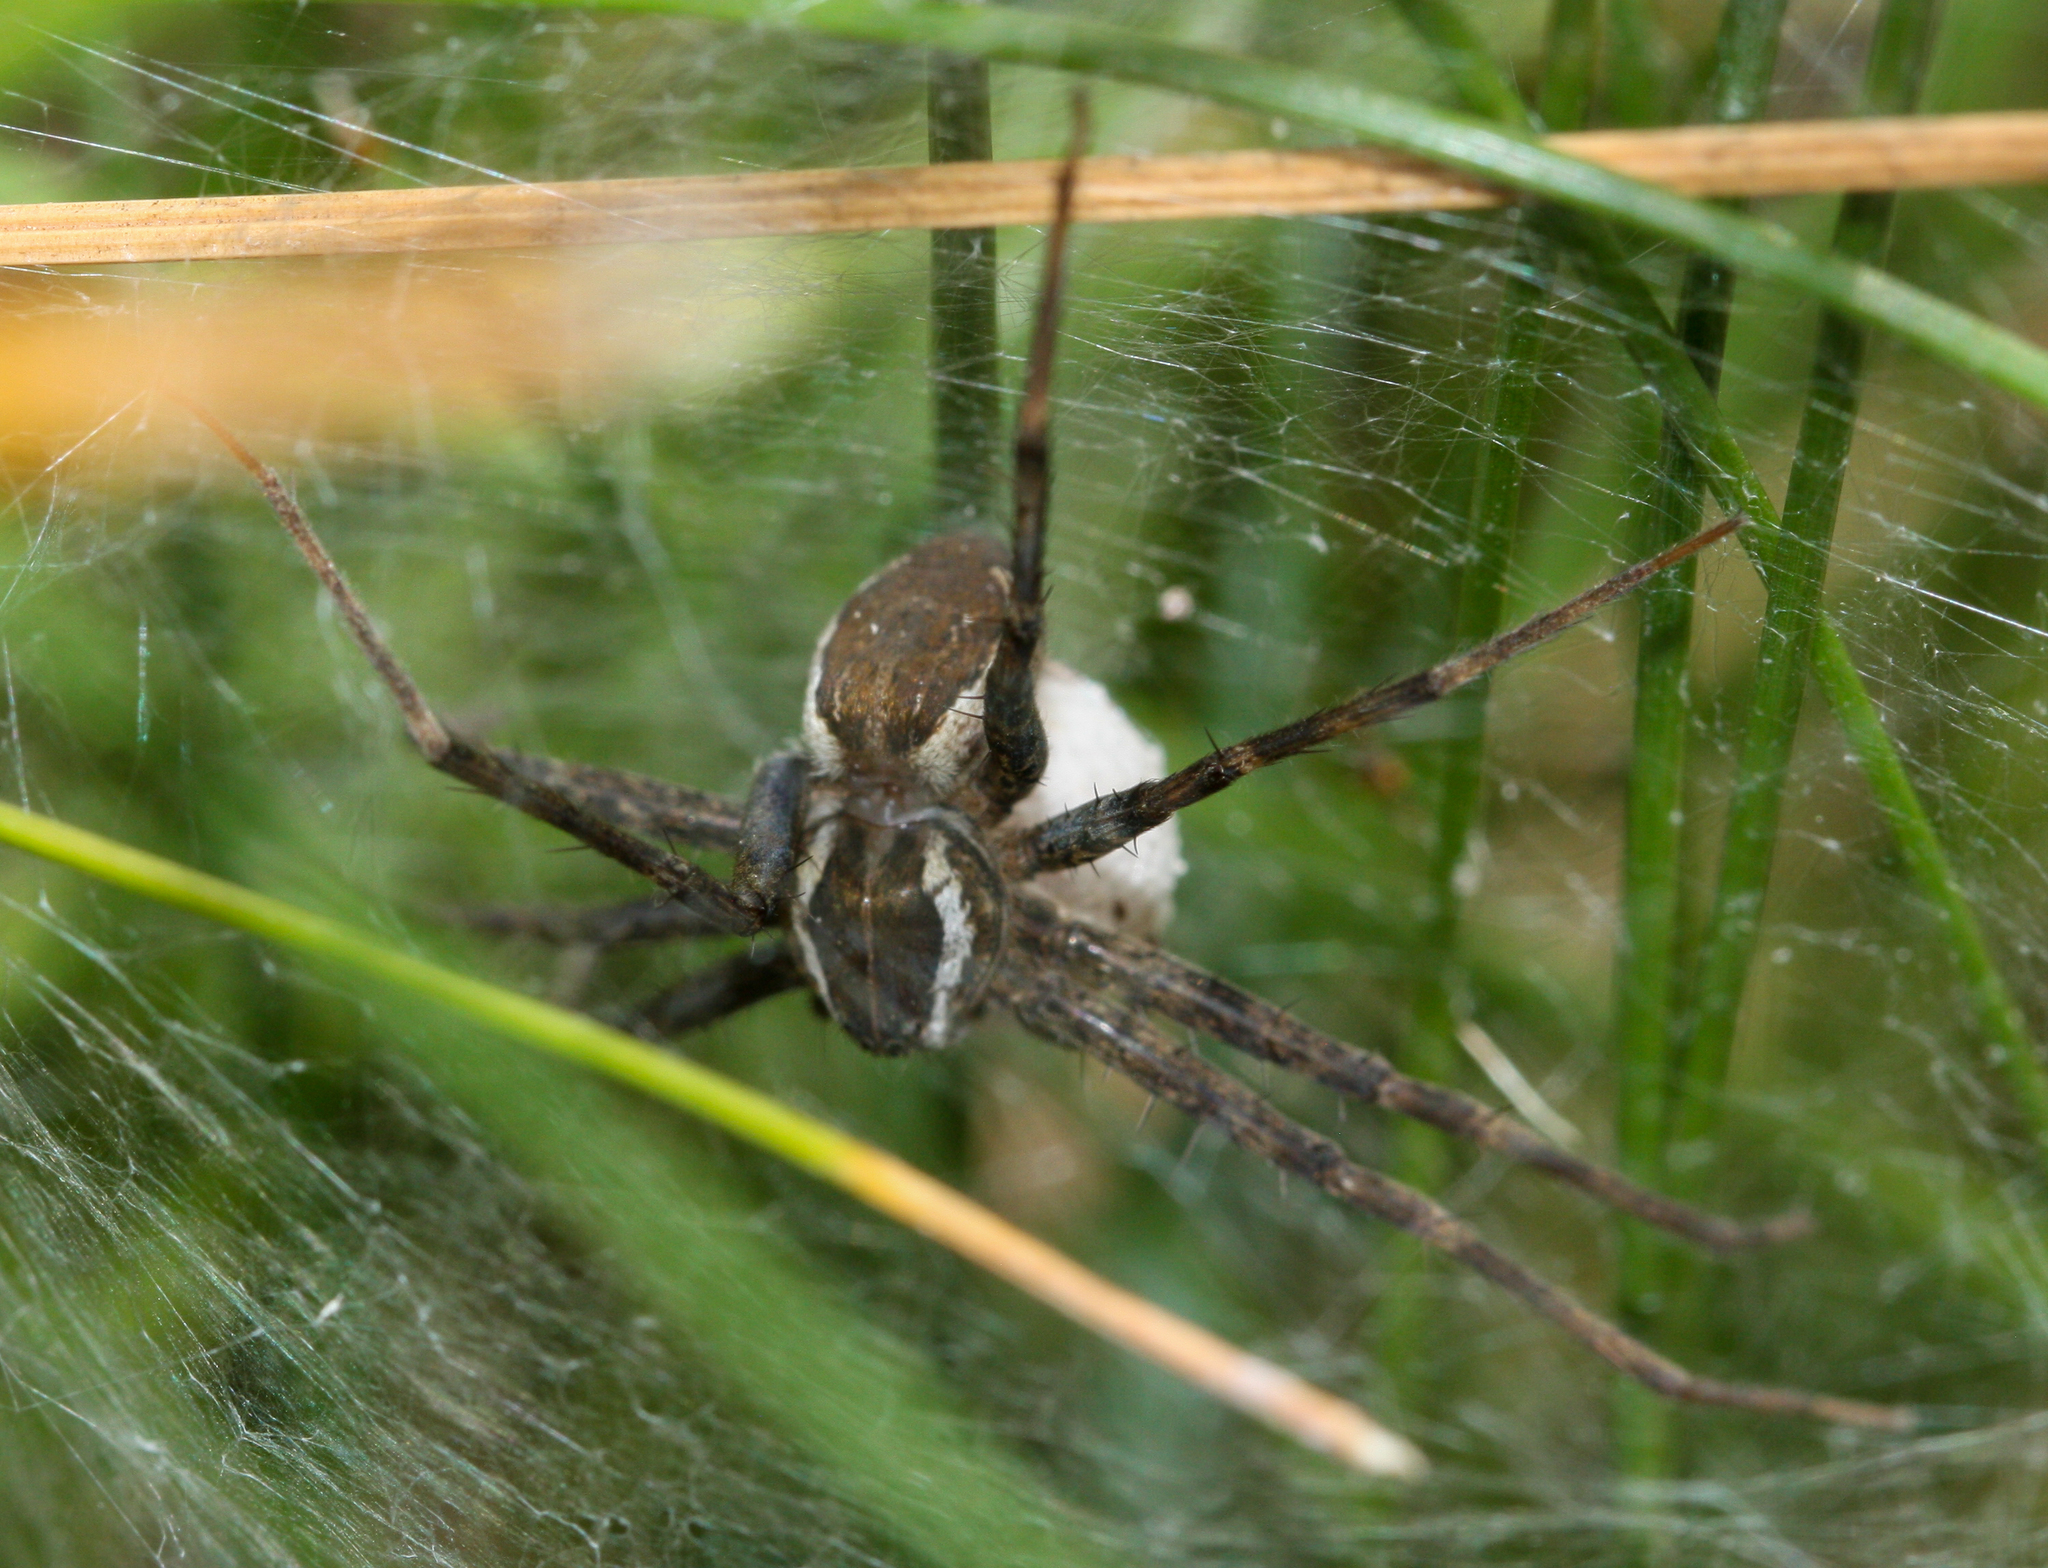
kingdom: Animalia
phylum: Arthropoda
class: Arachnida
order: Araneae
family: Pisauridae
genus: Tinus
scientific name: Tinus peregrinus
